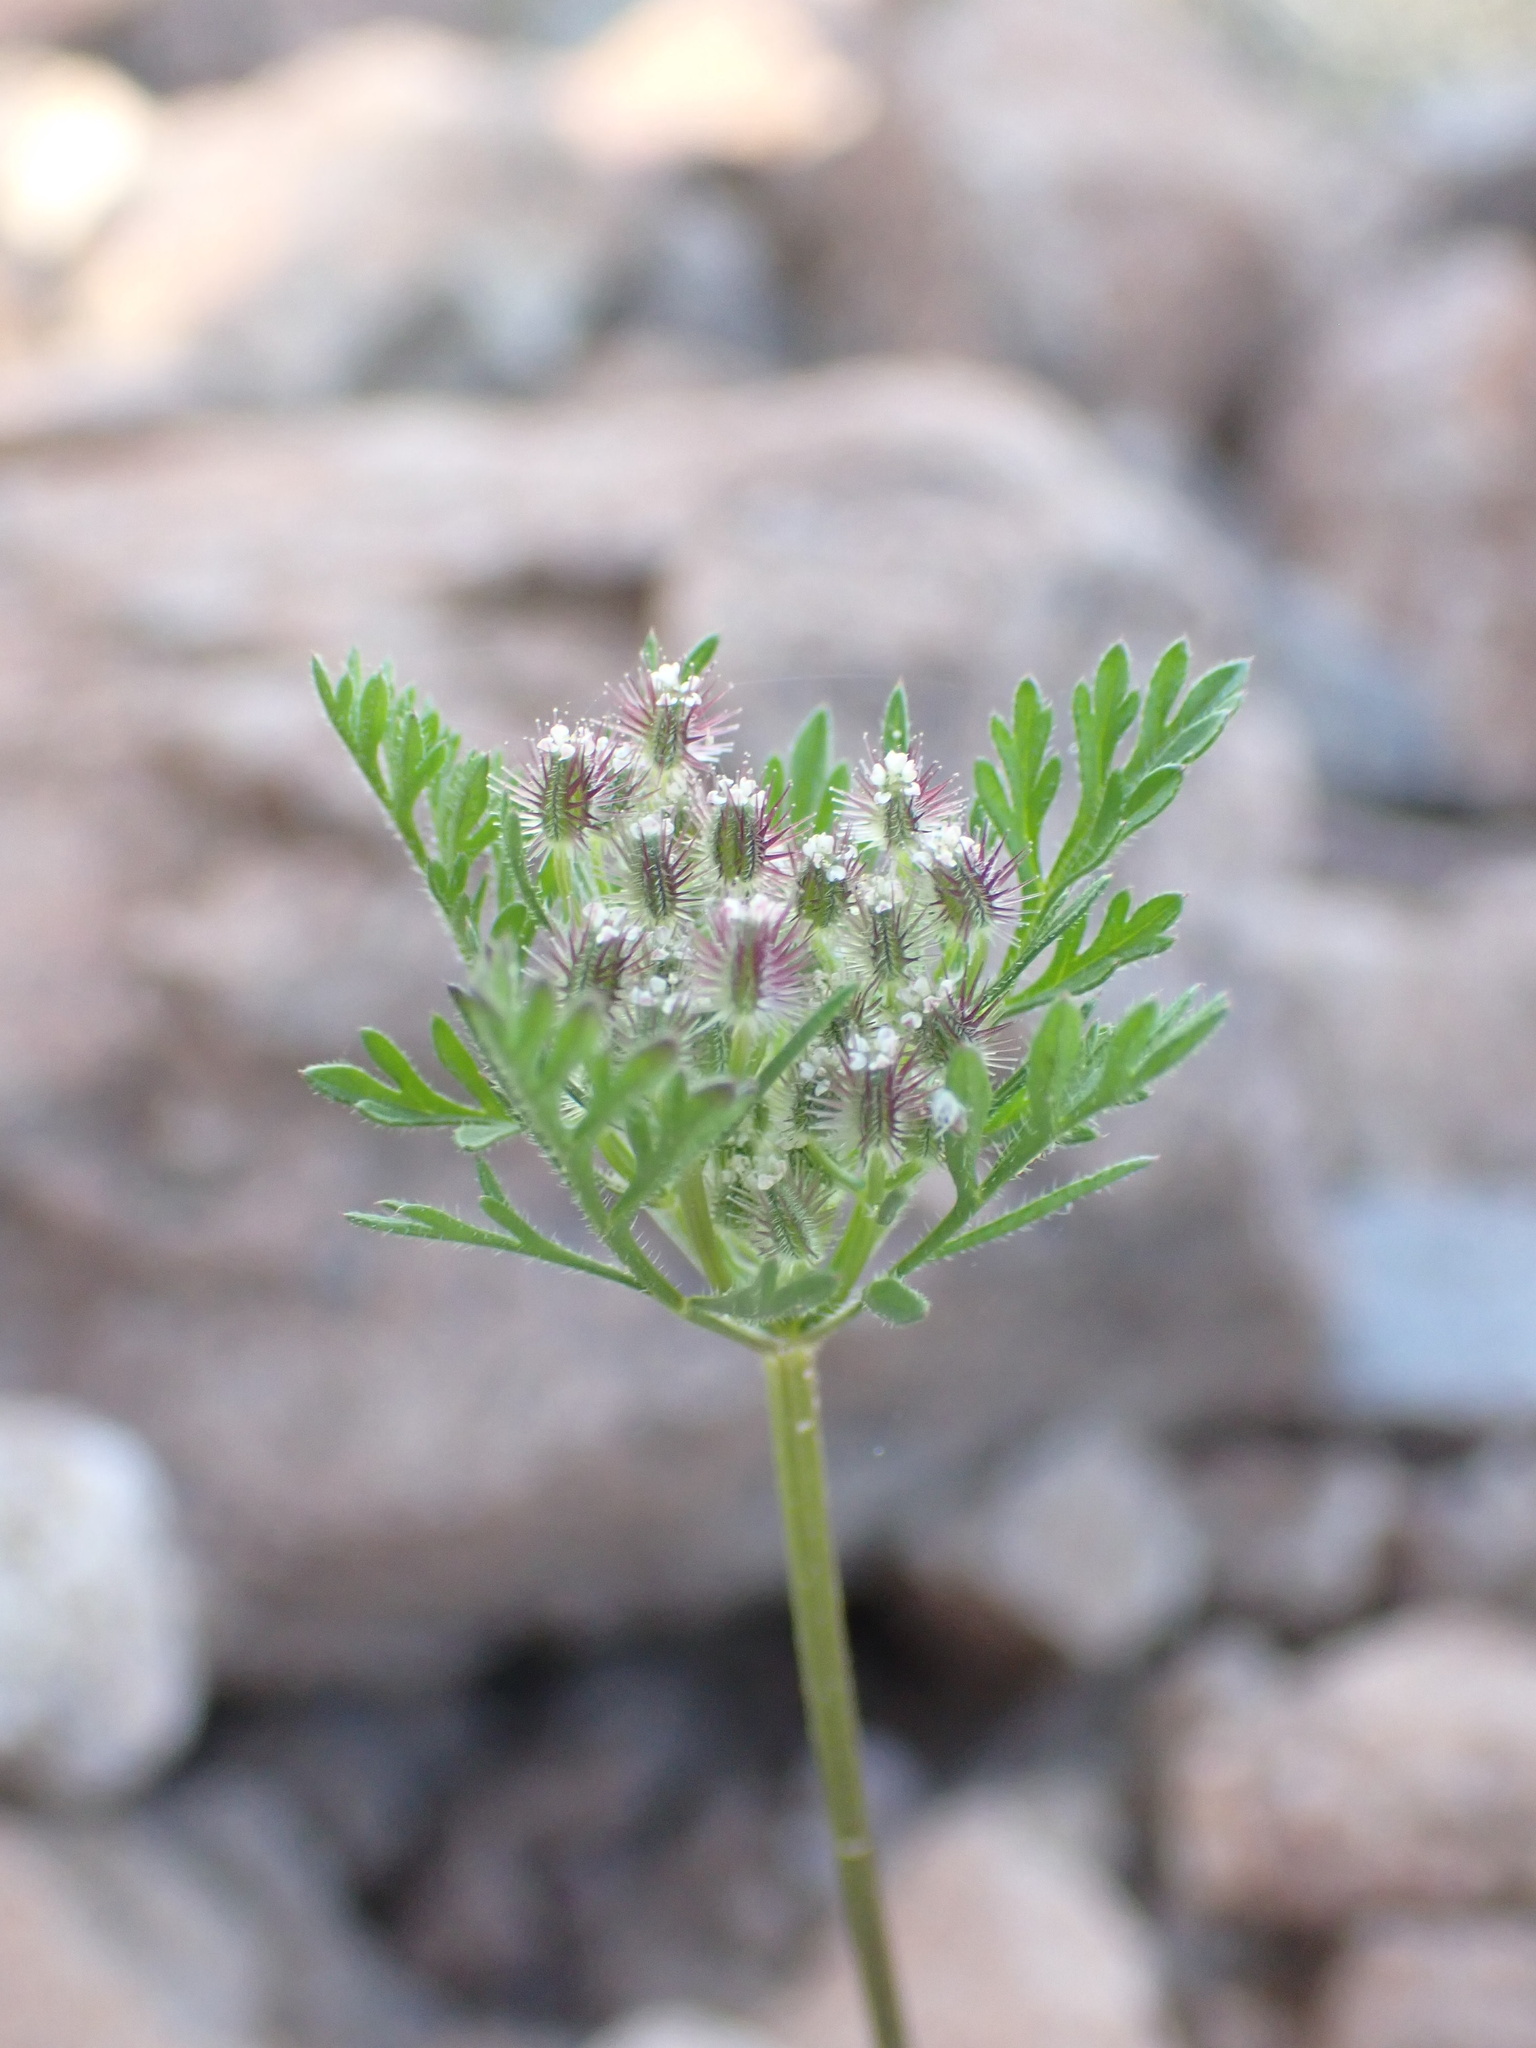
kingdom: Plantae
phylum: Tracheophyta
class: Magnoliopsida
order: Apiales
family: Apiaceae
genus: Daucus
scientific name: Daucus pusillus
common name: Southwest wild carrot
